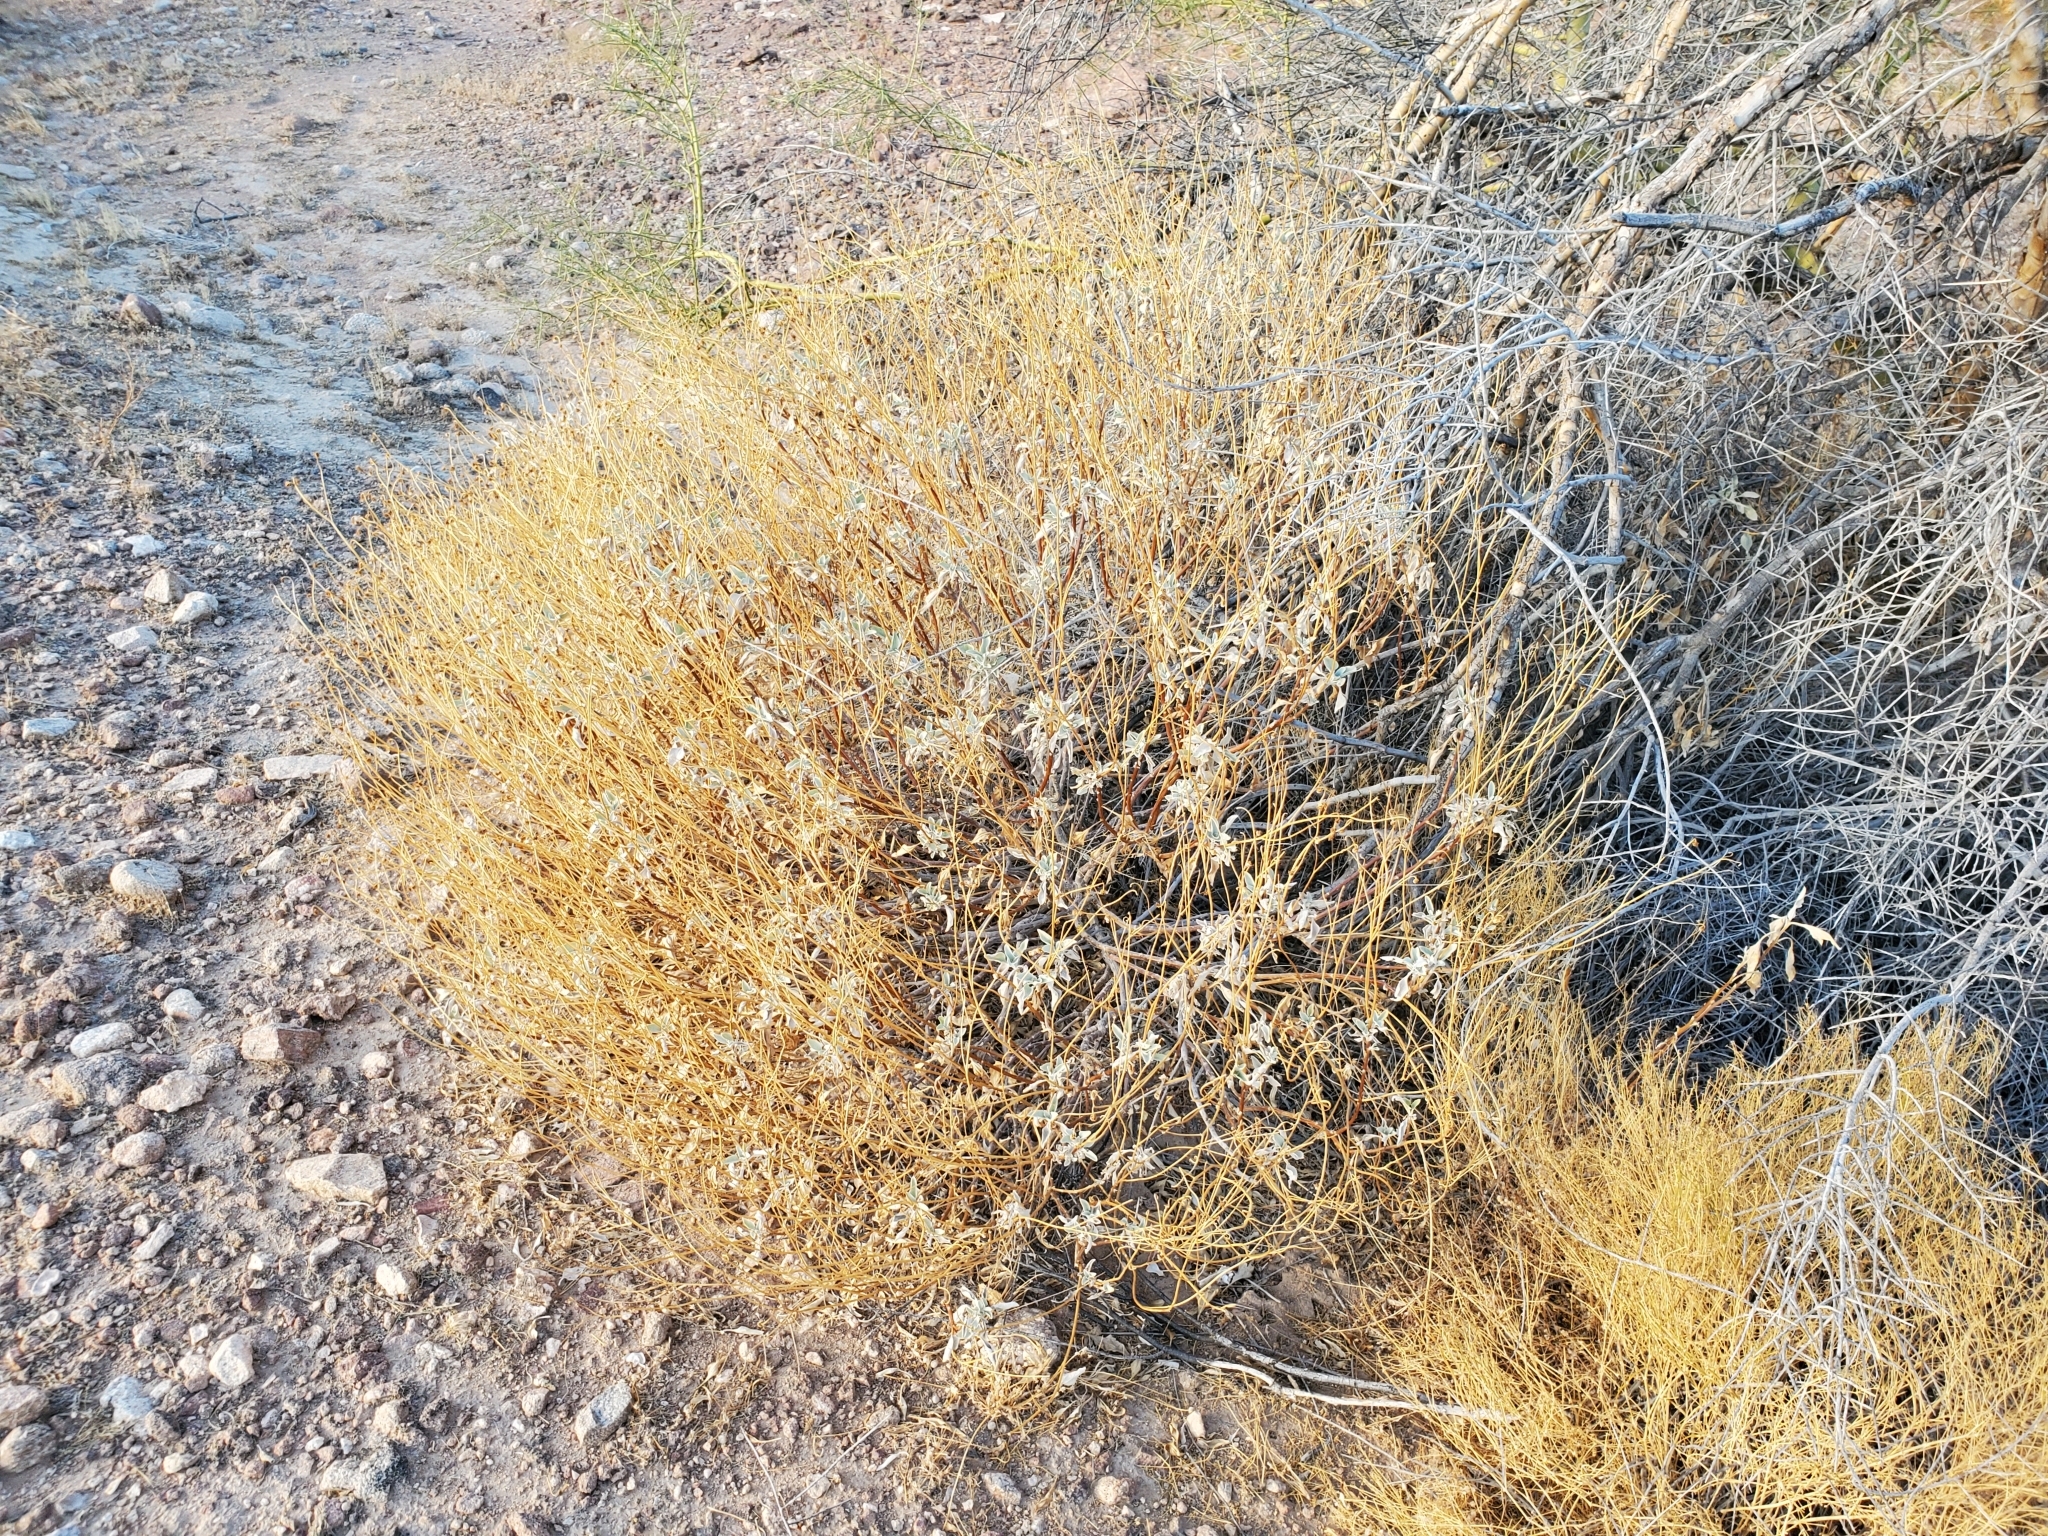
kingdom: Plantae
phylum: Tracheophyta
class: Magnoliopsida
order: Asterales
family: Asteraceae
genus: Encelia
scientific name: Encelia farinosa
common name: Brittlebush
